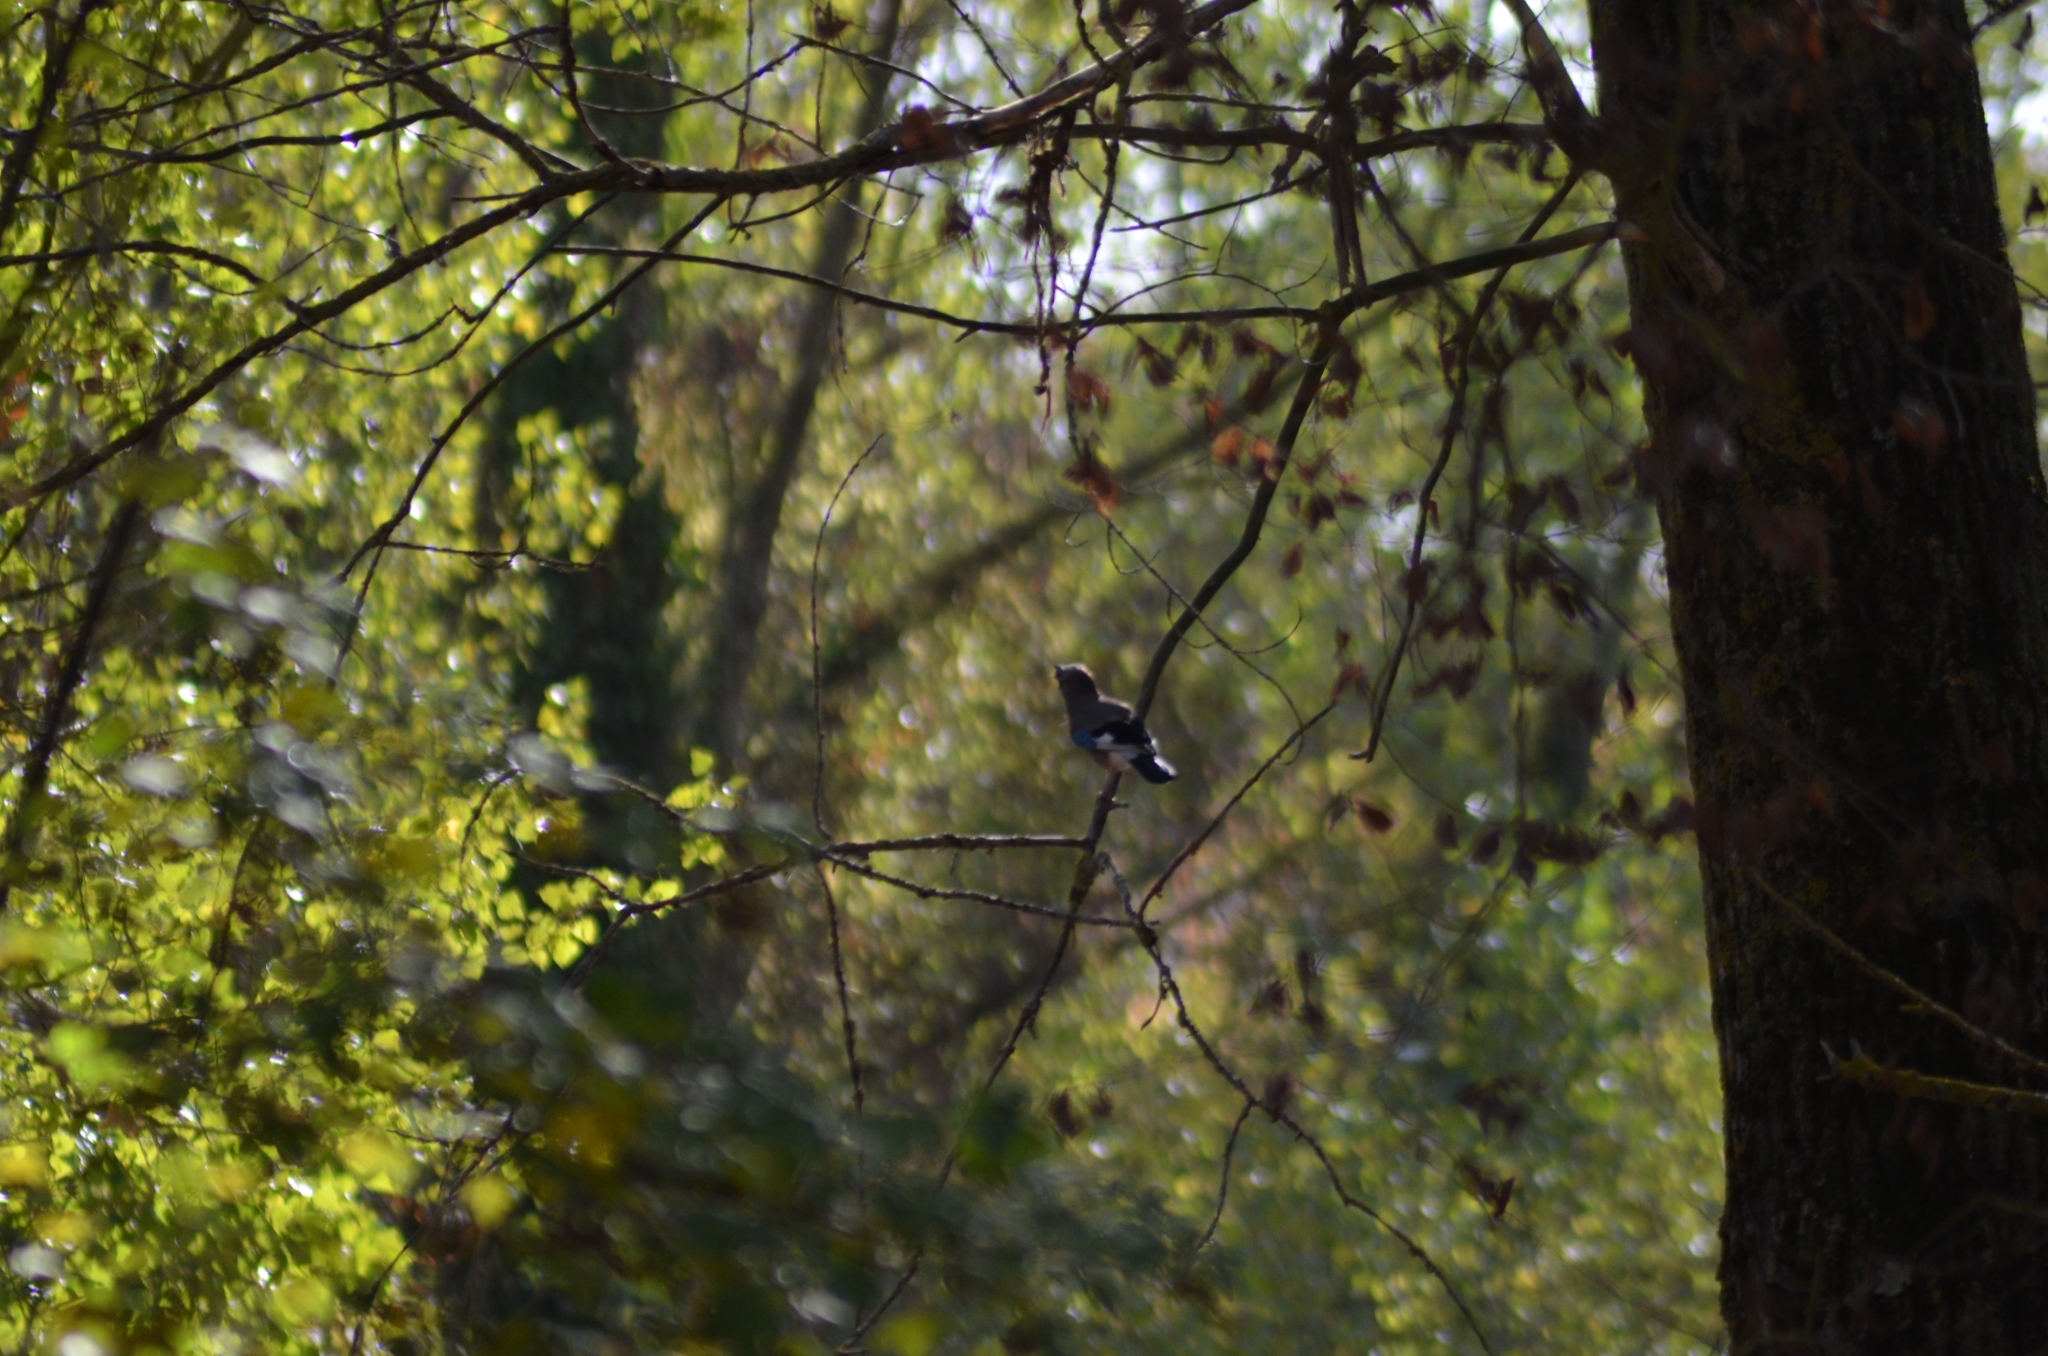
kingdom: Animalia
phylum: Chordata
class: Aves
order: Passeriformes
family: Corvidae
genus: Garrulus
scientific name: Garrulus glandarius
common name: Eurasian jay
